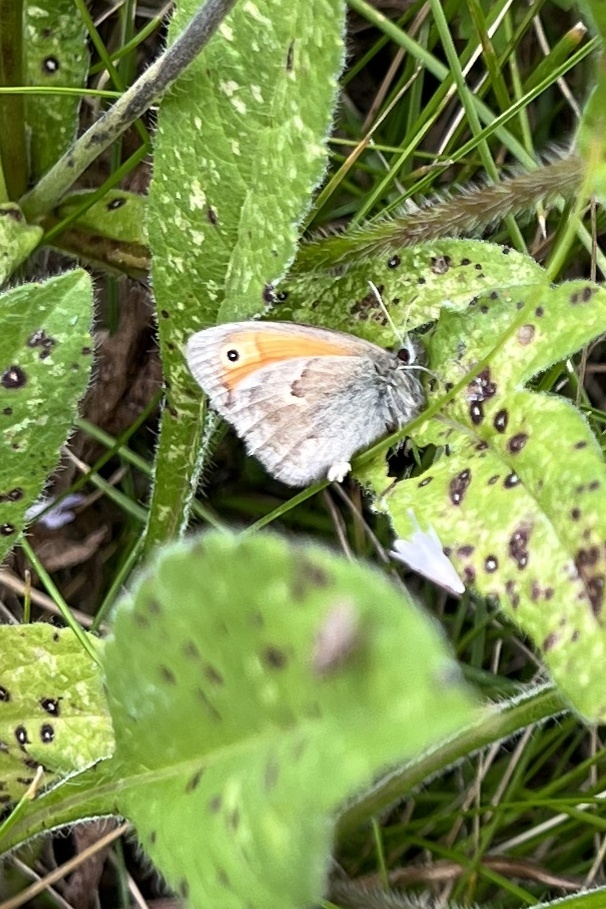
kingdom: Animalia
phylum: Arthropoda
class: Insecta
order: Lepidoptera
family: Nymphalidae
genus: Coenonympha
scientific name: Coenonympha pamphilus
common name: Small heath
